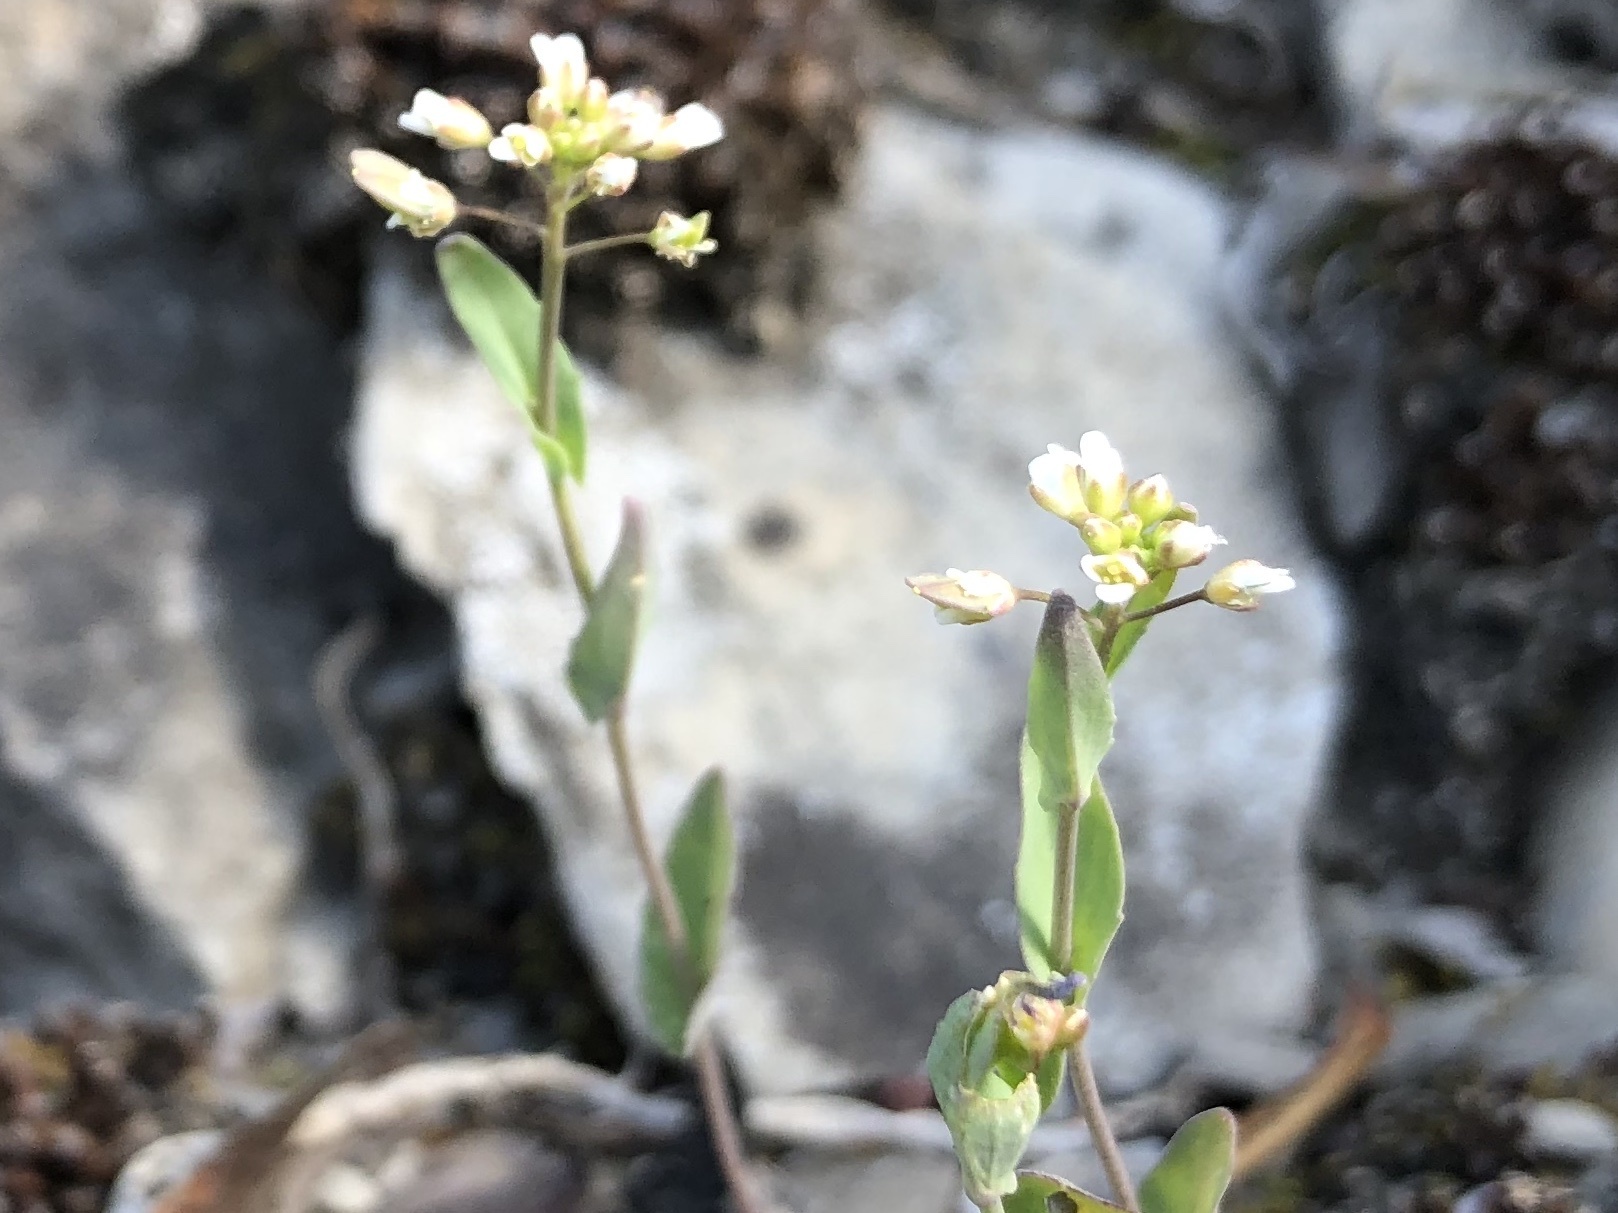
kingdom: Plantae
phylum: Tracheophyta
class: Magnoliopsida
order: Brassicales
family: Brassicaceae
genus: Noccaea
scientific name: Noccaea perfoliata
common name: Perfoliate pennycress
